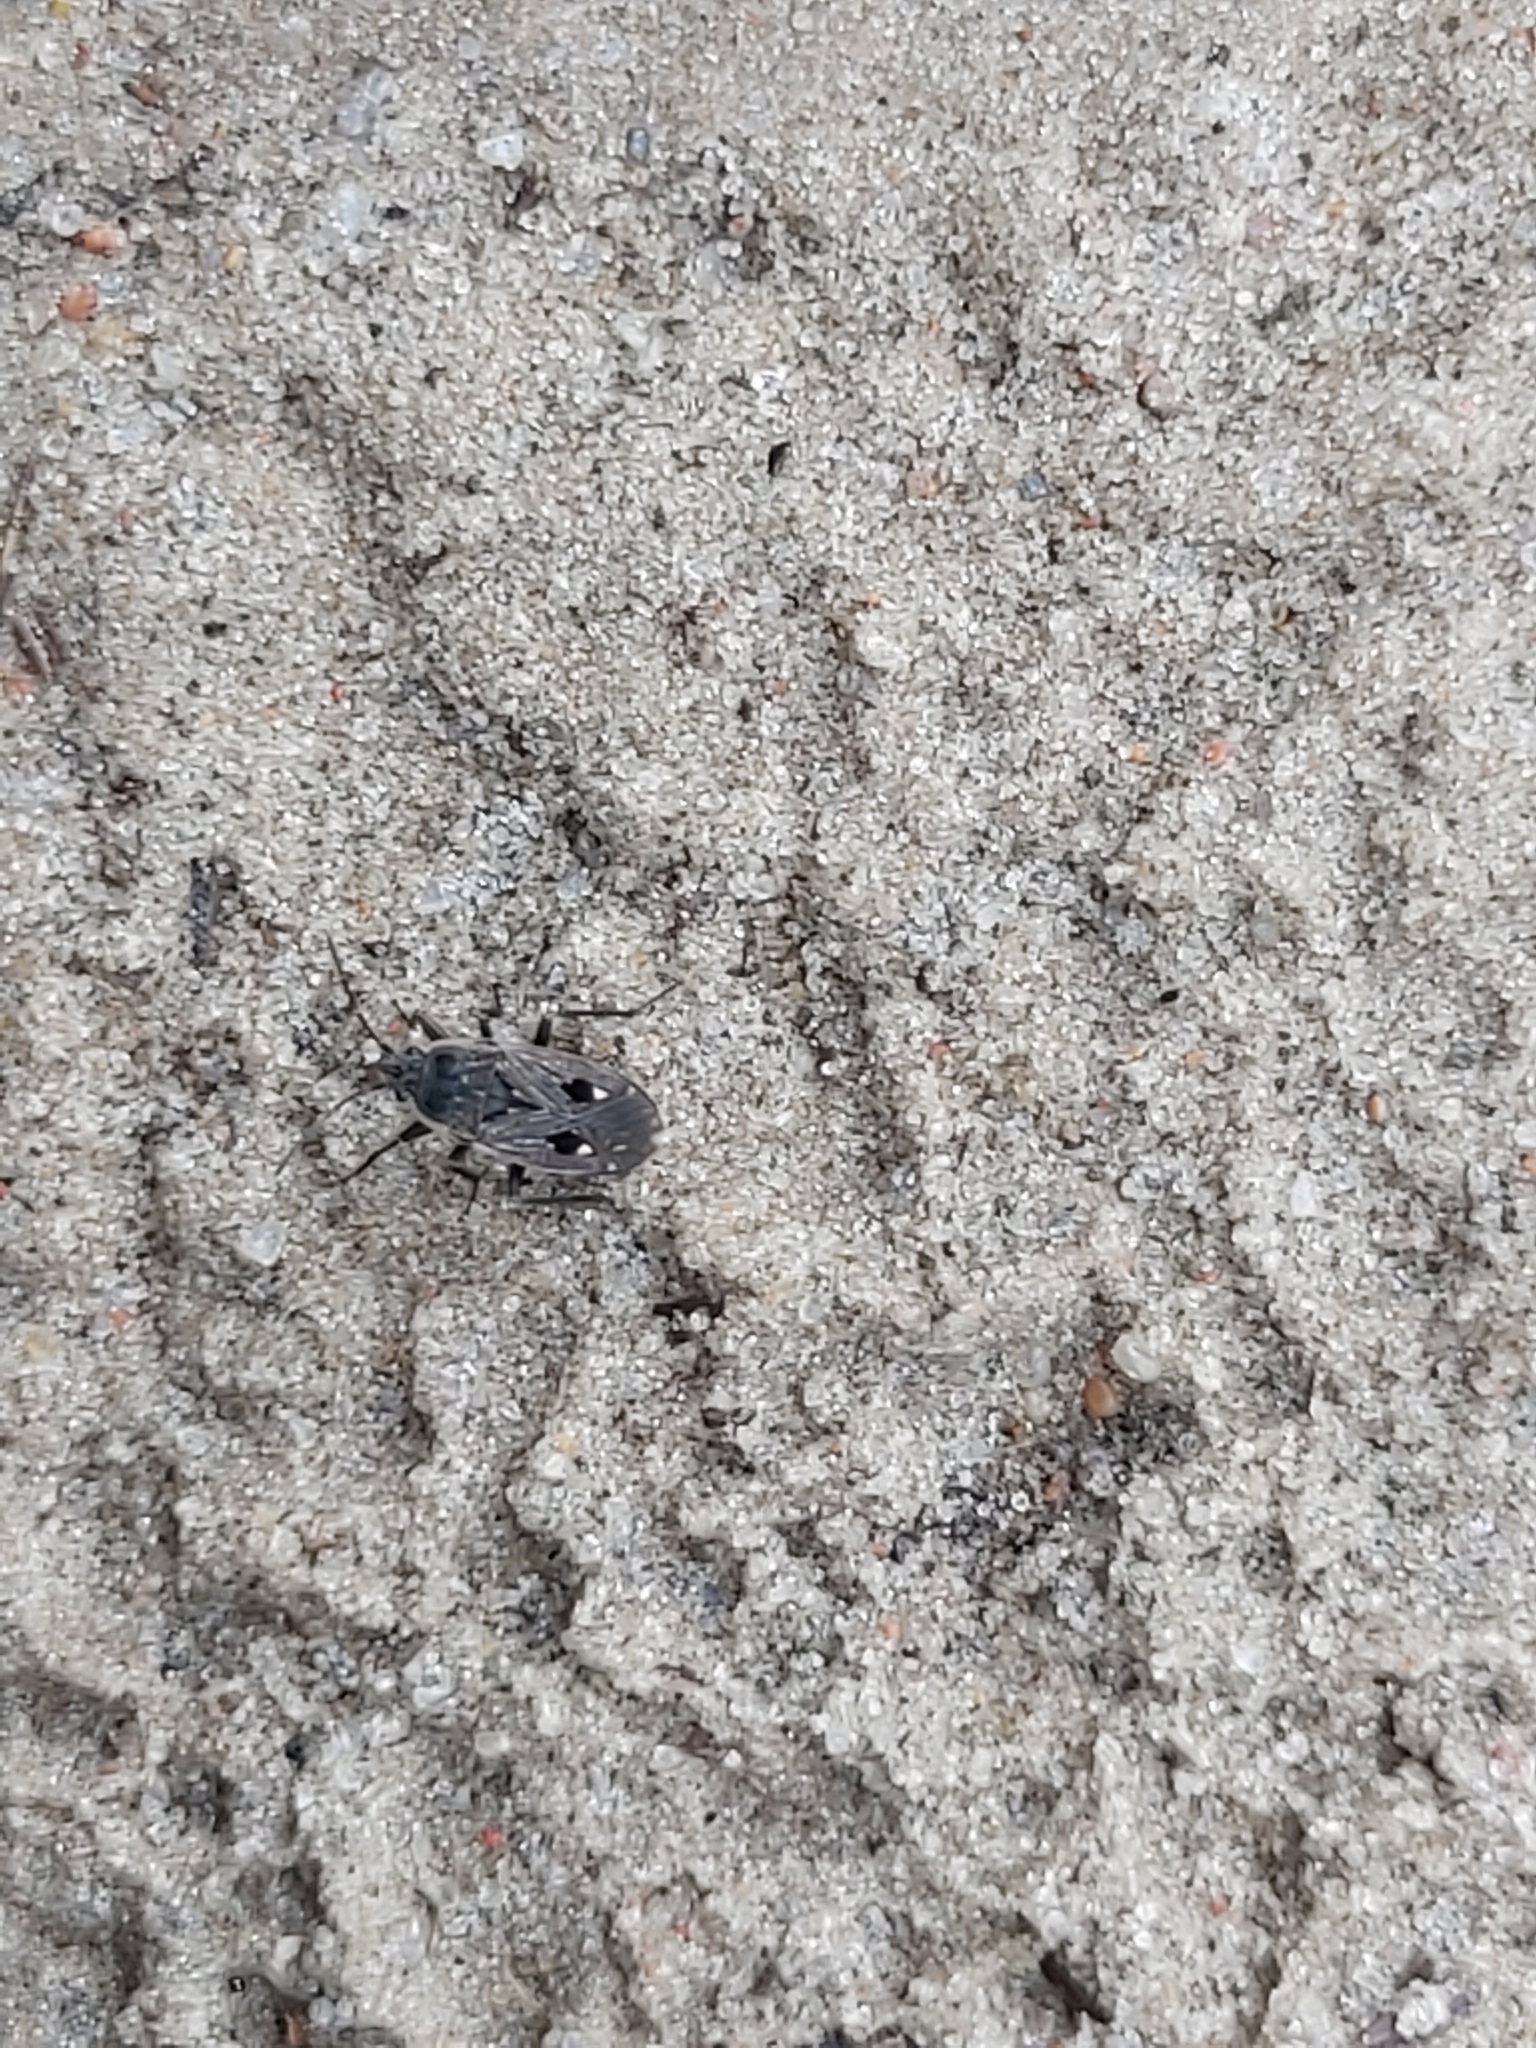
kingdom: Animalia
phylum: Arthropoda
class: Insecta
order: Hemiptera
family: Rhyparochromidae
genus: Graptopeltus
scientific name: Graptopeltus lynceus
